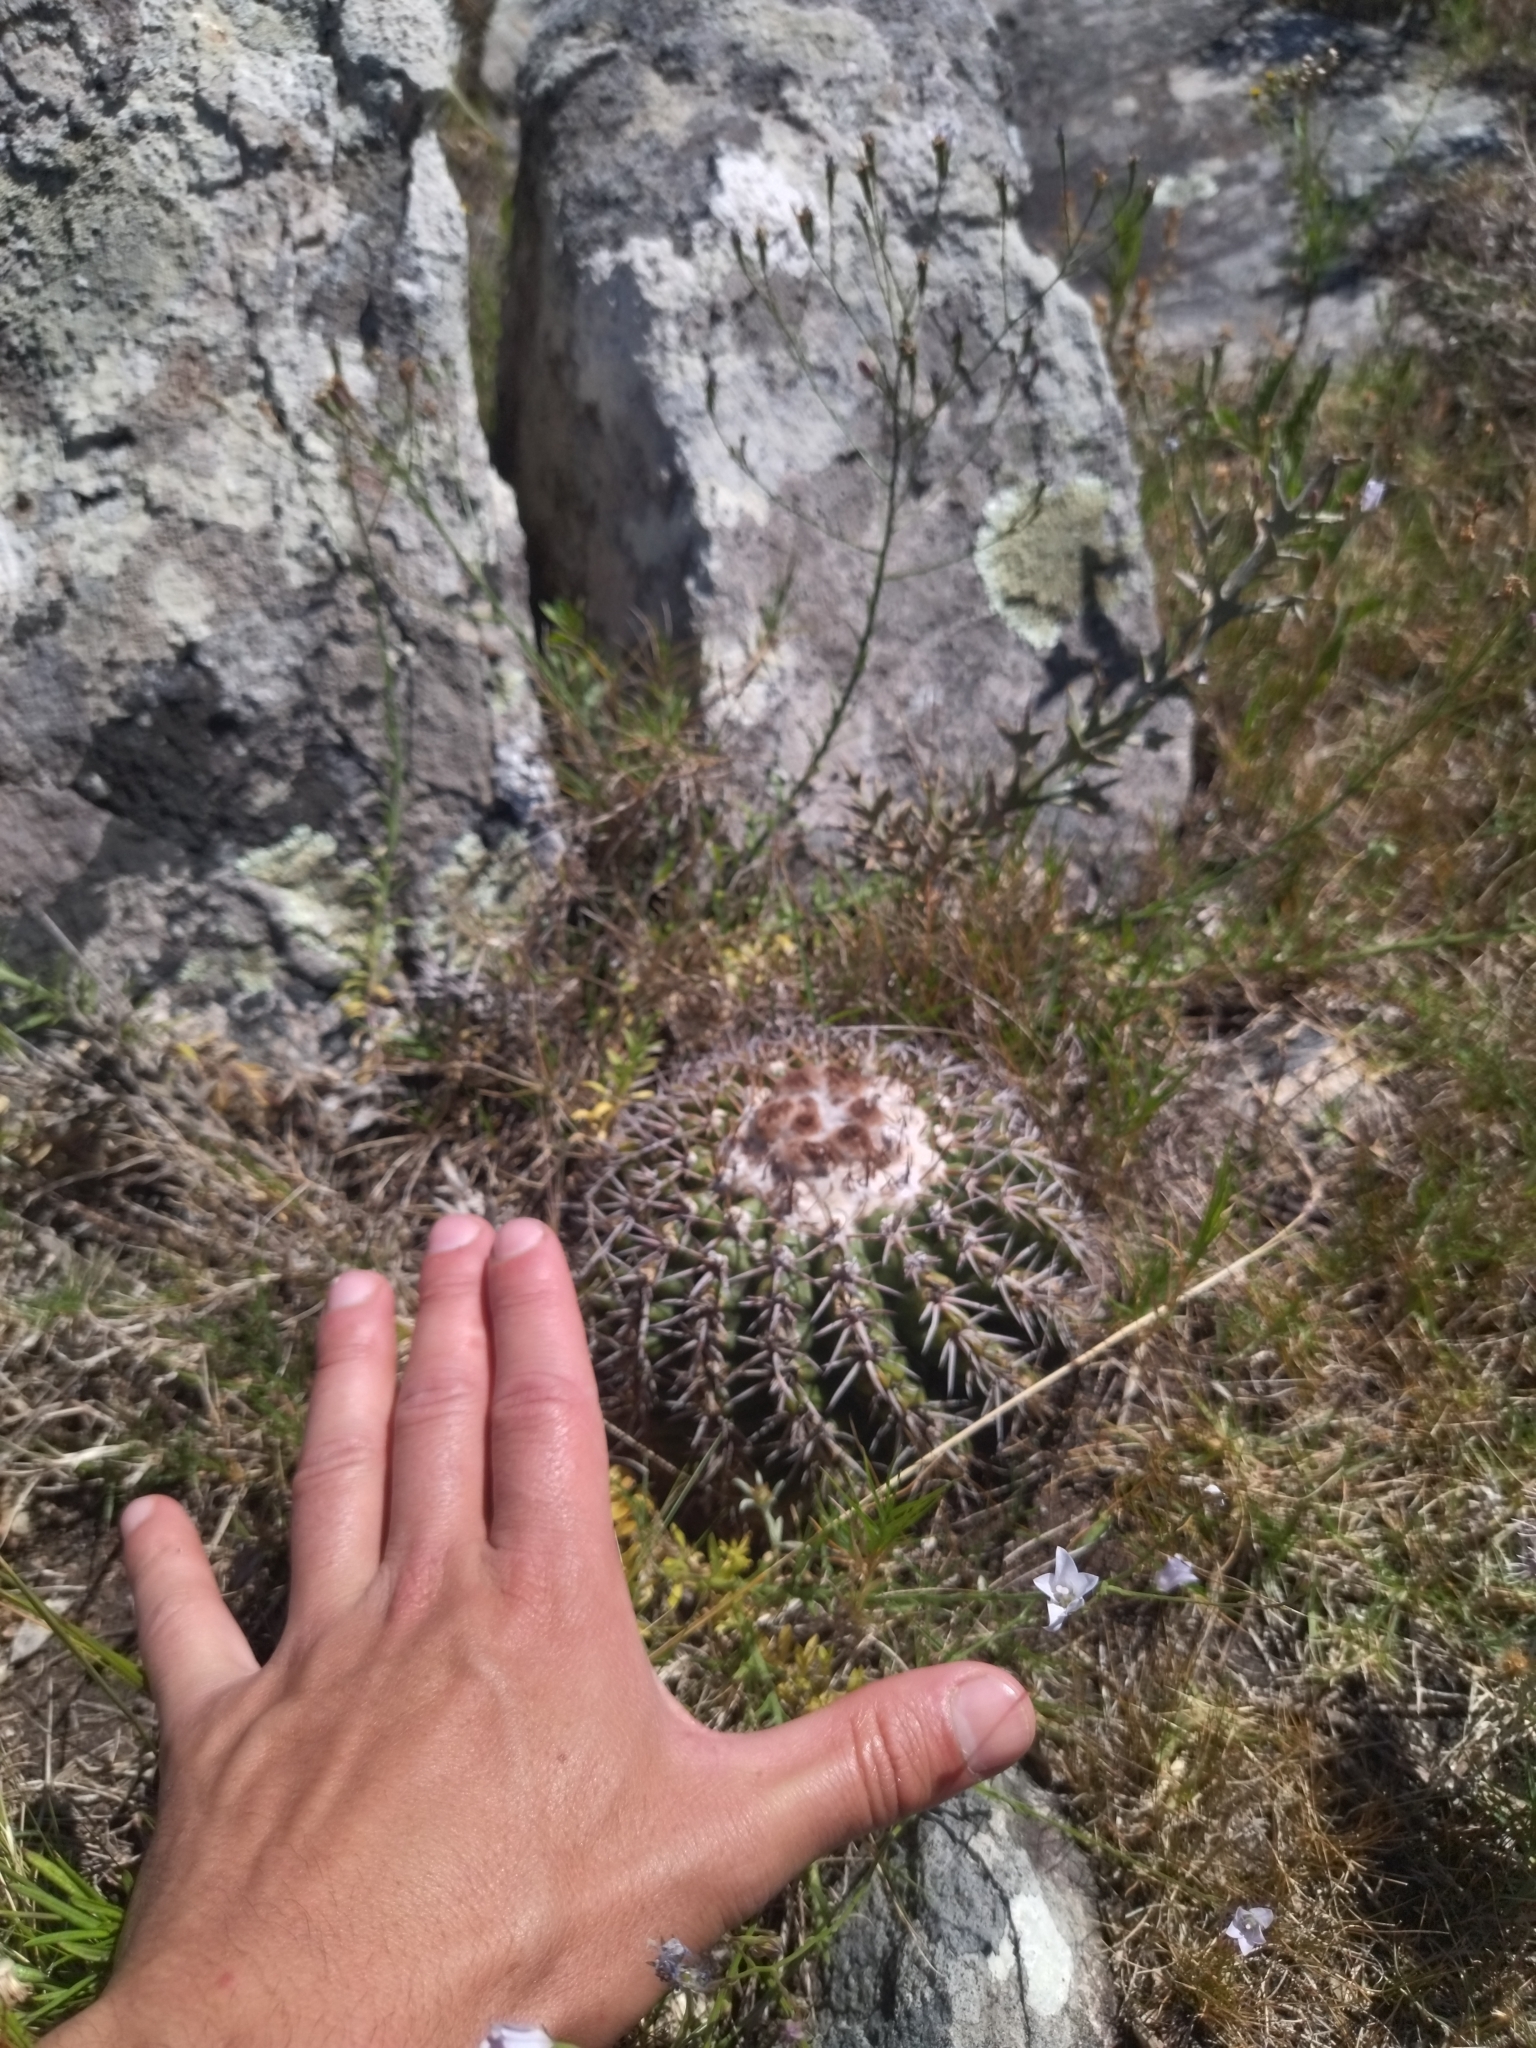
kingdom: Plantae
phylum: Tracheophyta
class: Magnoliopsida
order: Caryophyllales
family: Cactaceae
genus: Parodia
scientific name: Parodia erinacea
